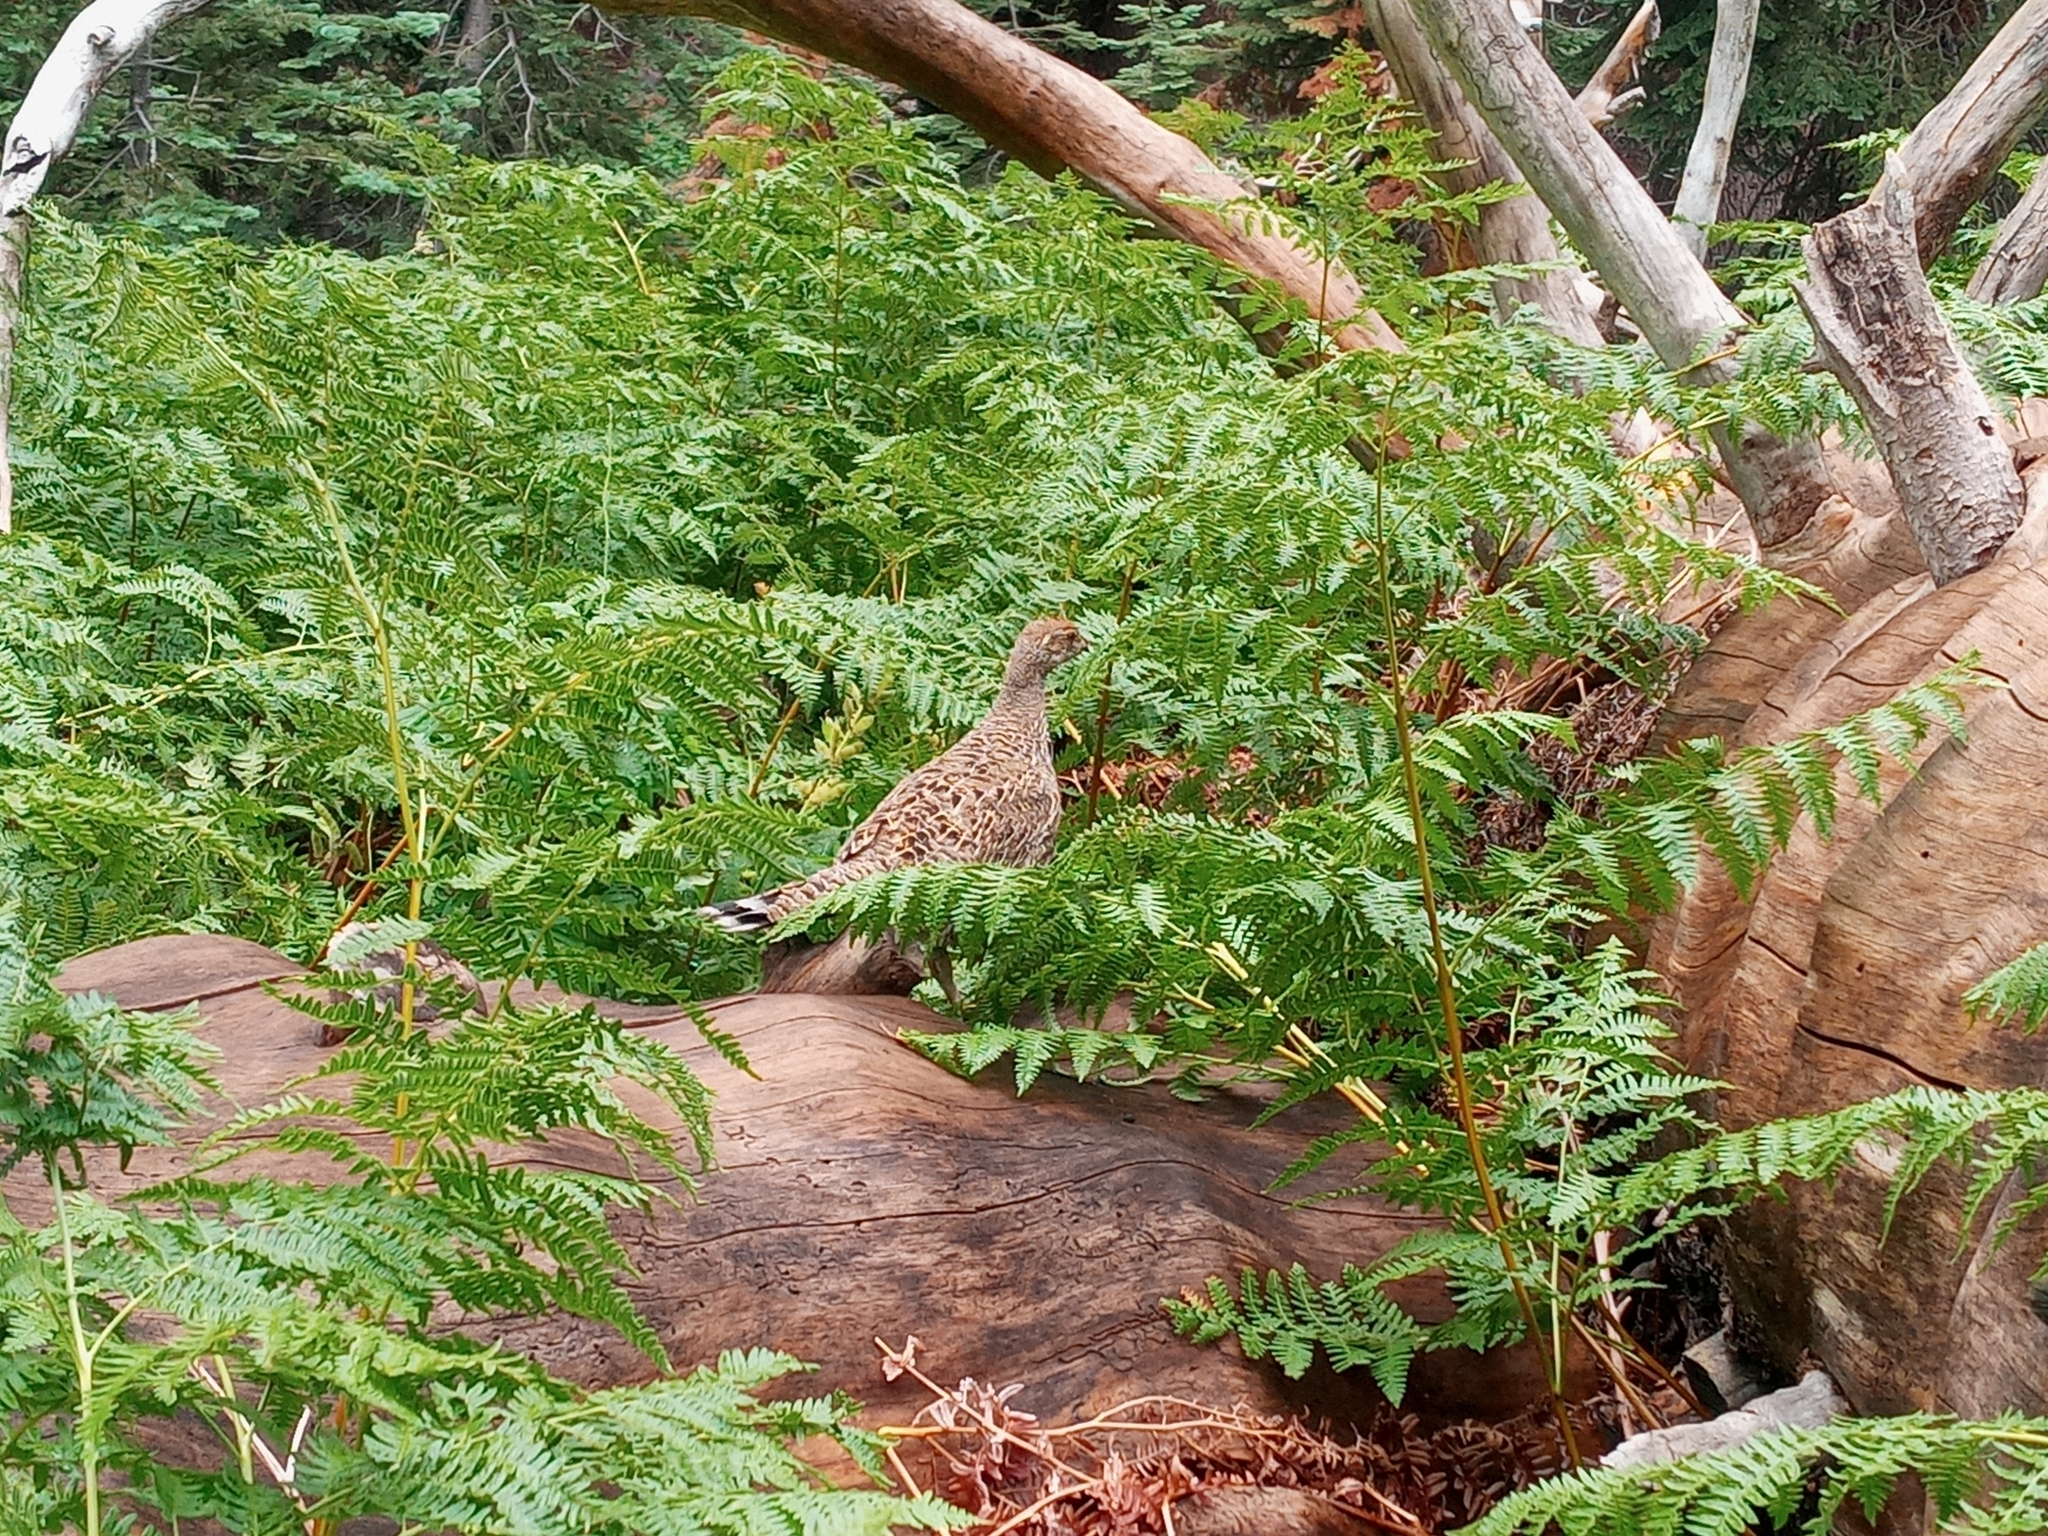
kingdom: Animalia
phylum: Chordata
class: Aves
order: Galliformes
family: Phasianidae
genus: Dendragapus
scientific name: Dendragapus fuliginosus
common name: Sooty grouse
